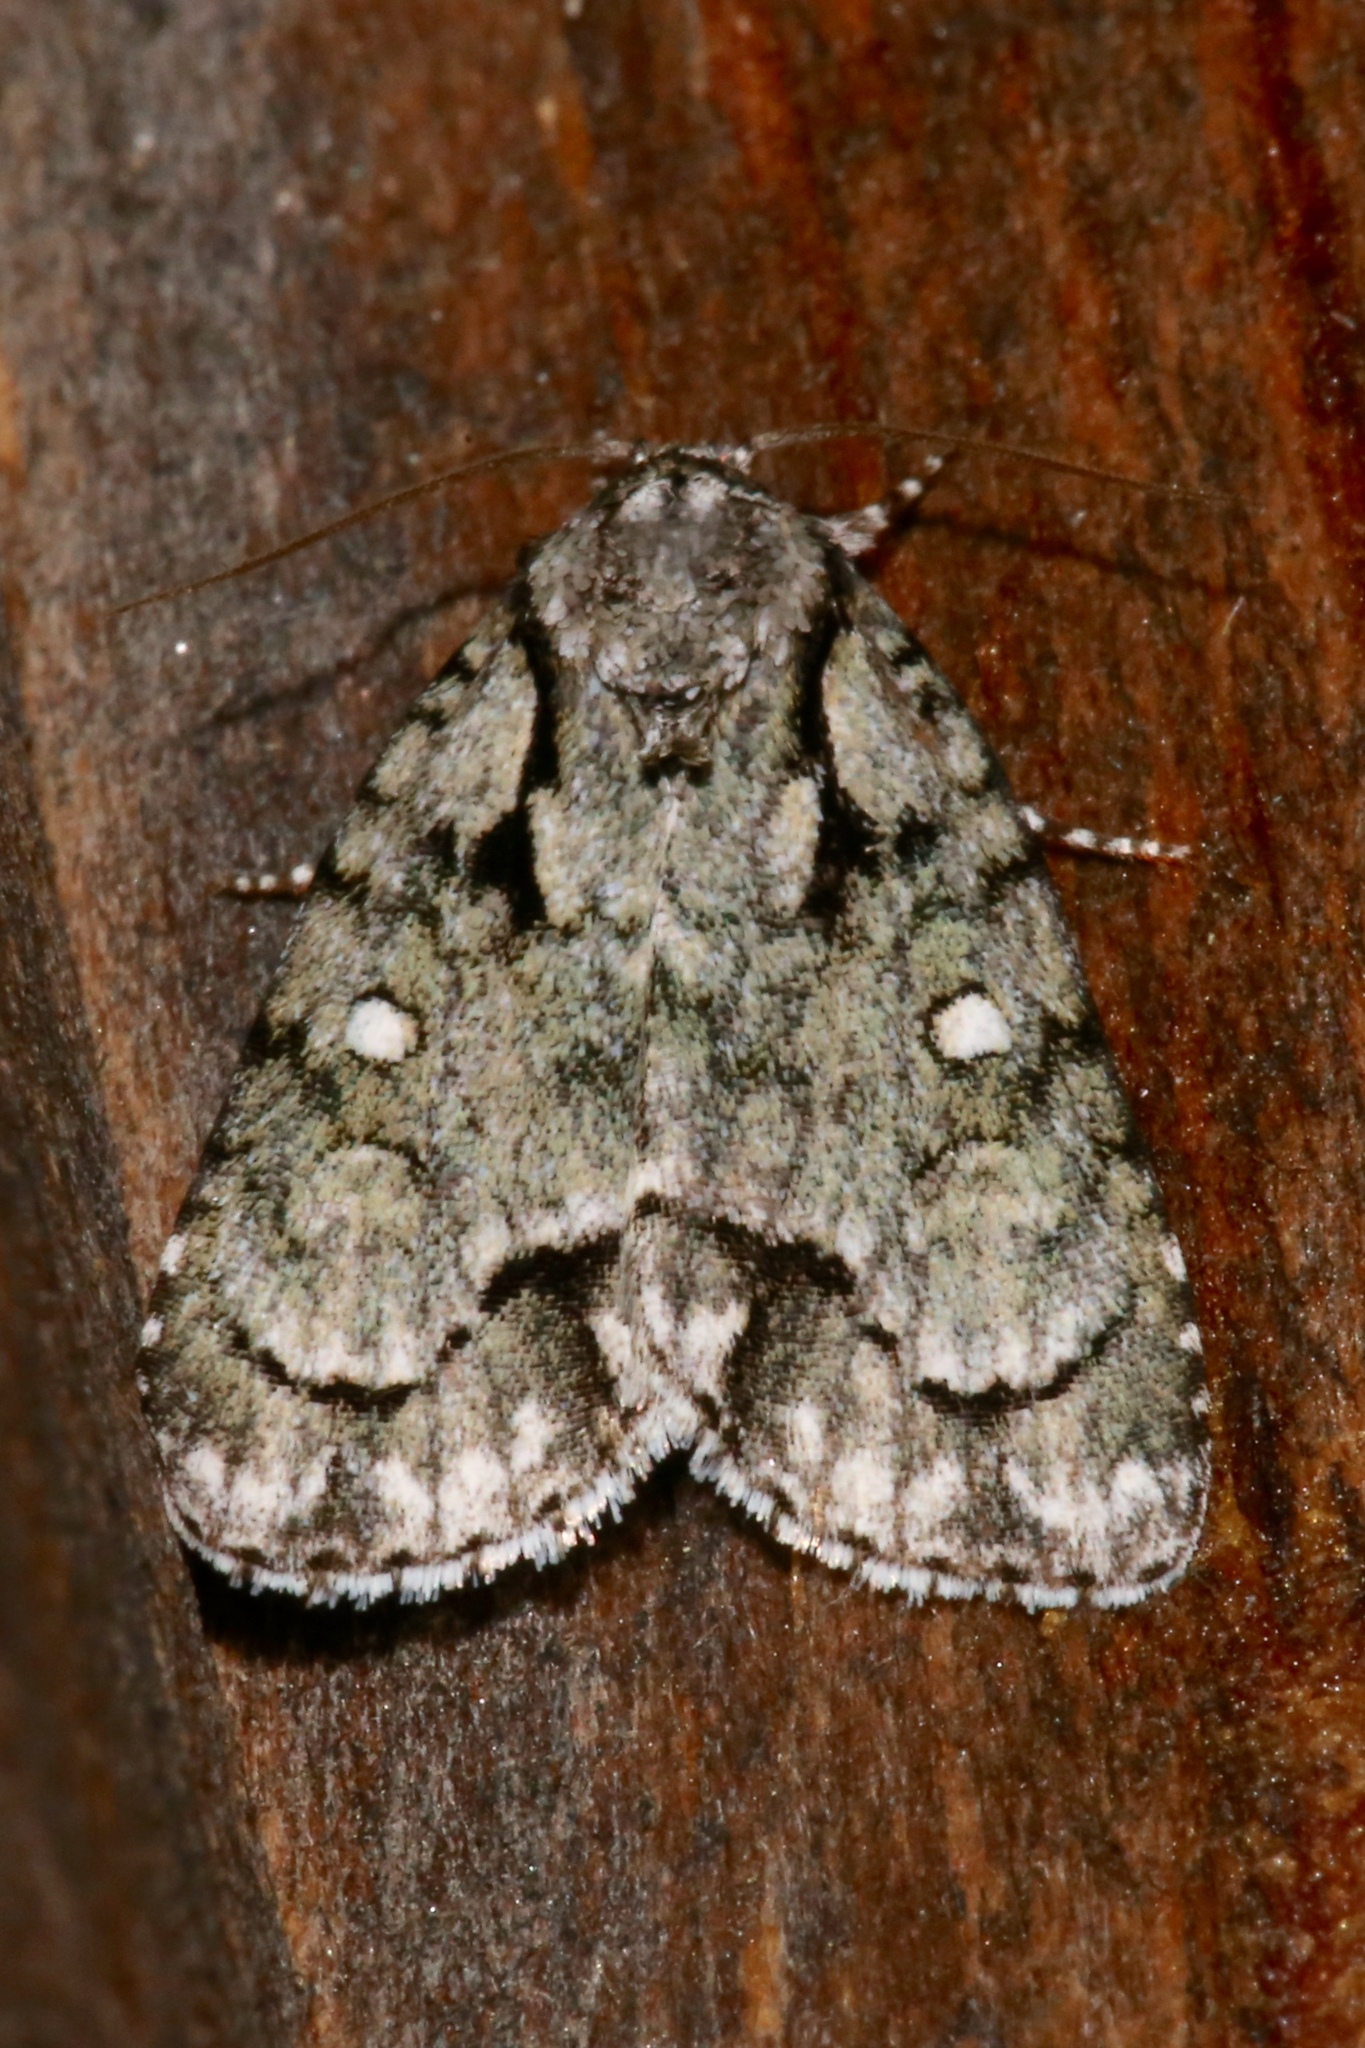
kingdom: Animalia
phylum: Arthropoda
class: Insecta
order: Lepidoptera
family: Noctuidae
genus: Acronicta
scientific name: Acronicta vinnula
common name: Delightful dagger
